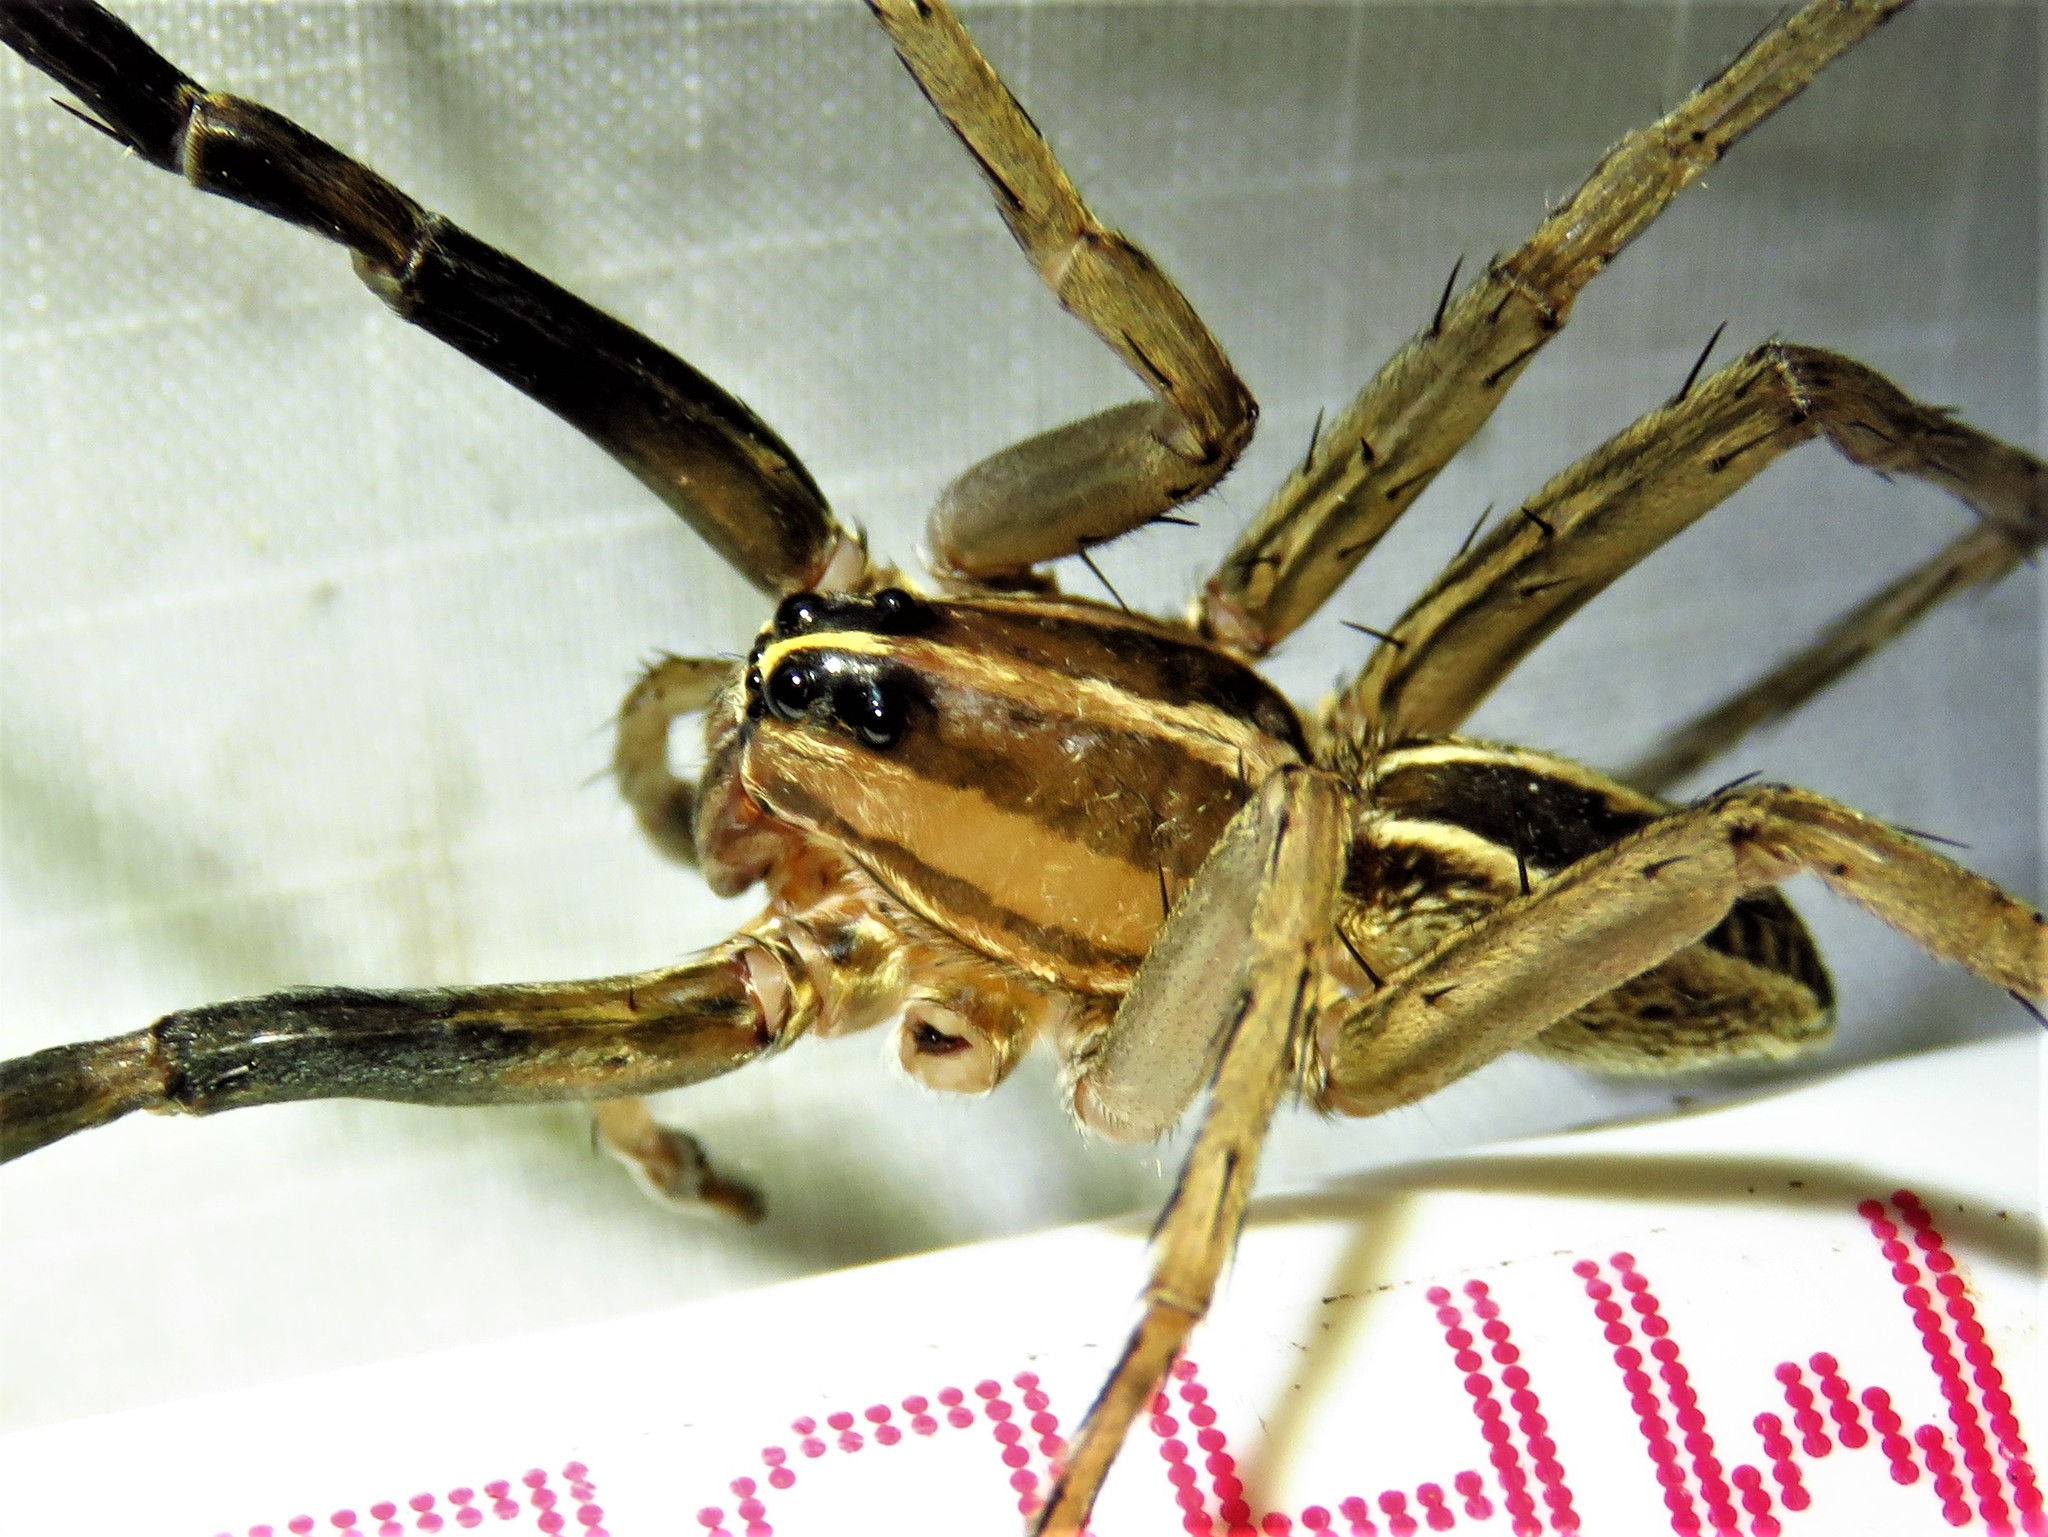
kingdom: Animalia
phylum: Arthropoda
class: Arachnida
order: Araneae
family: Lycosidae
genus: Rabidosa
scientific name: Rabidosa rabida
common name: Rabid wolf spider
